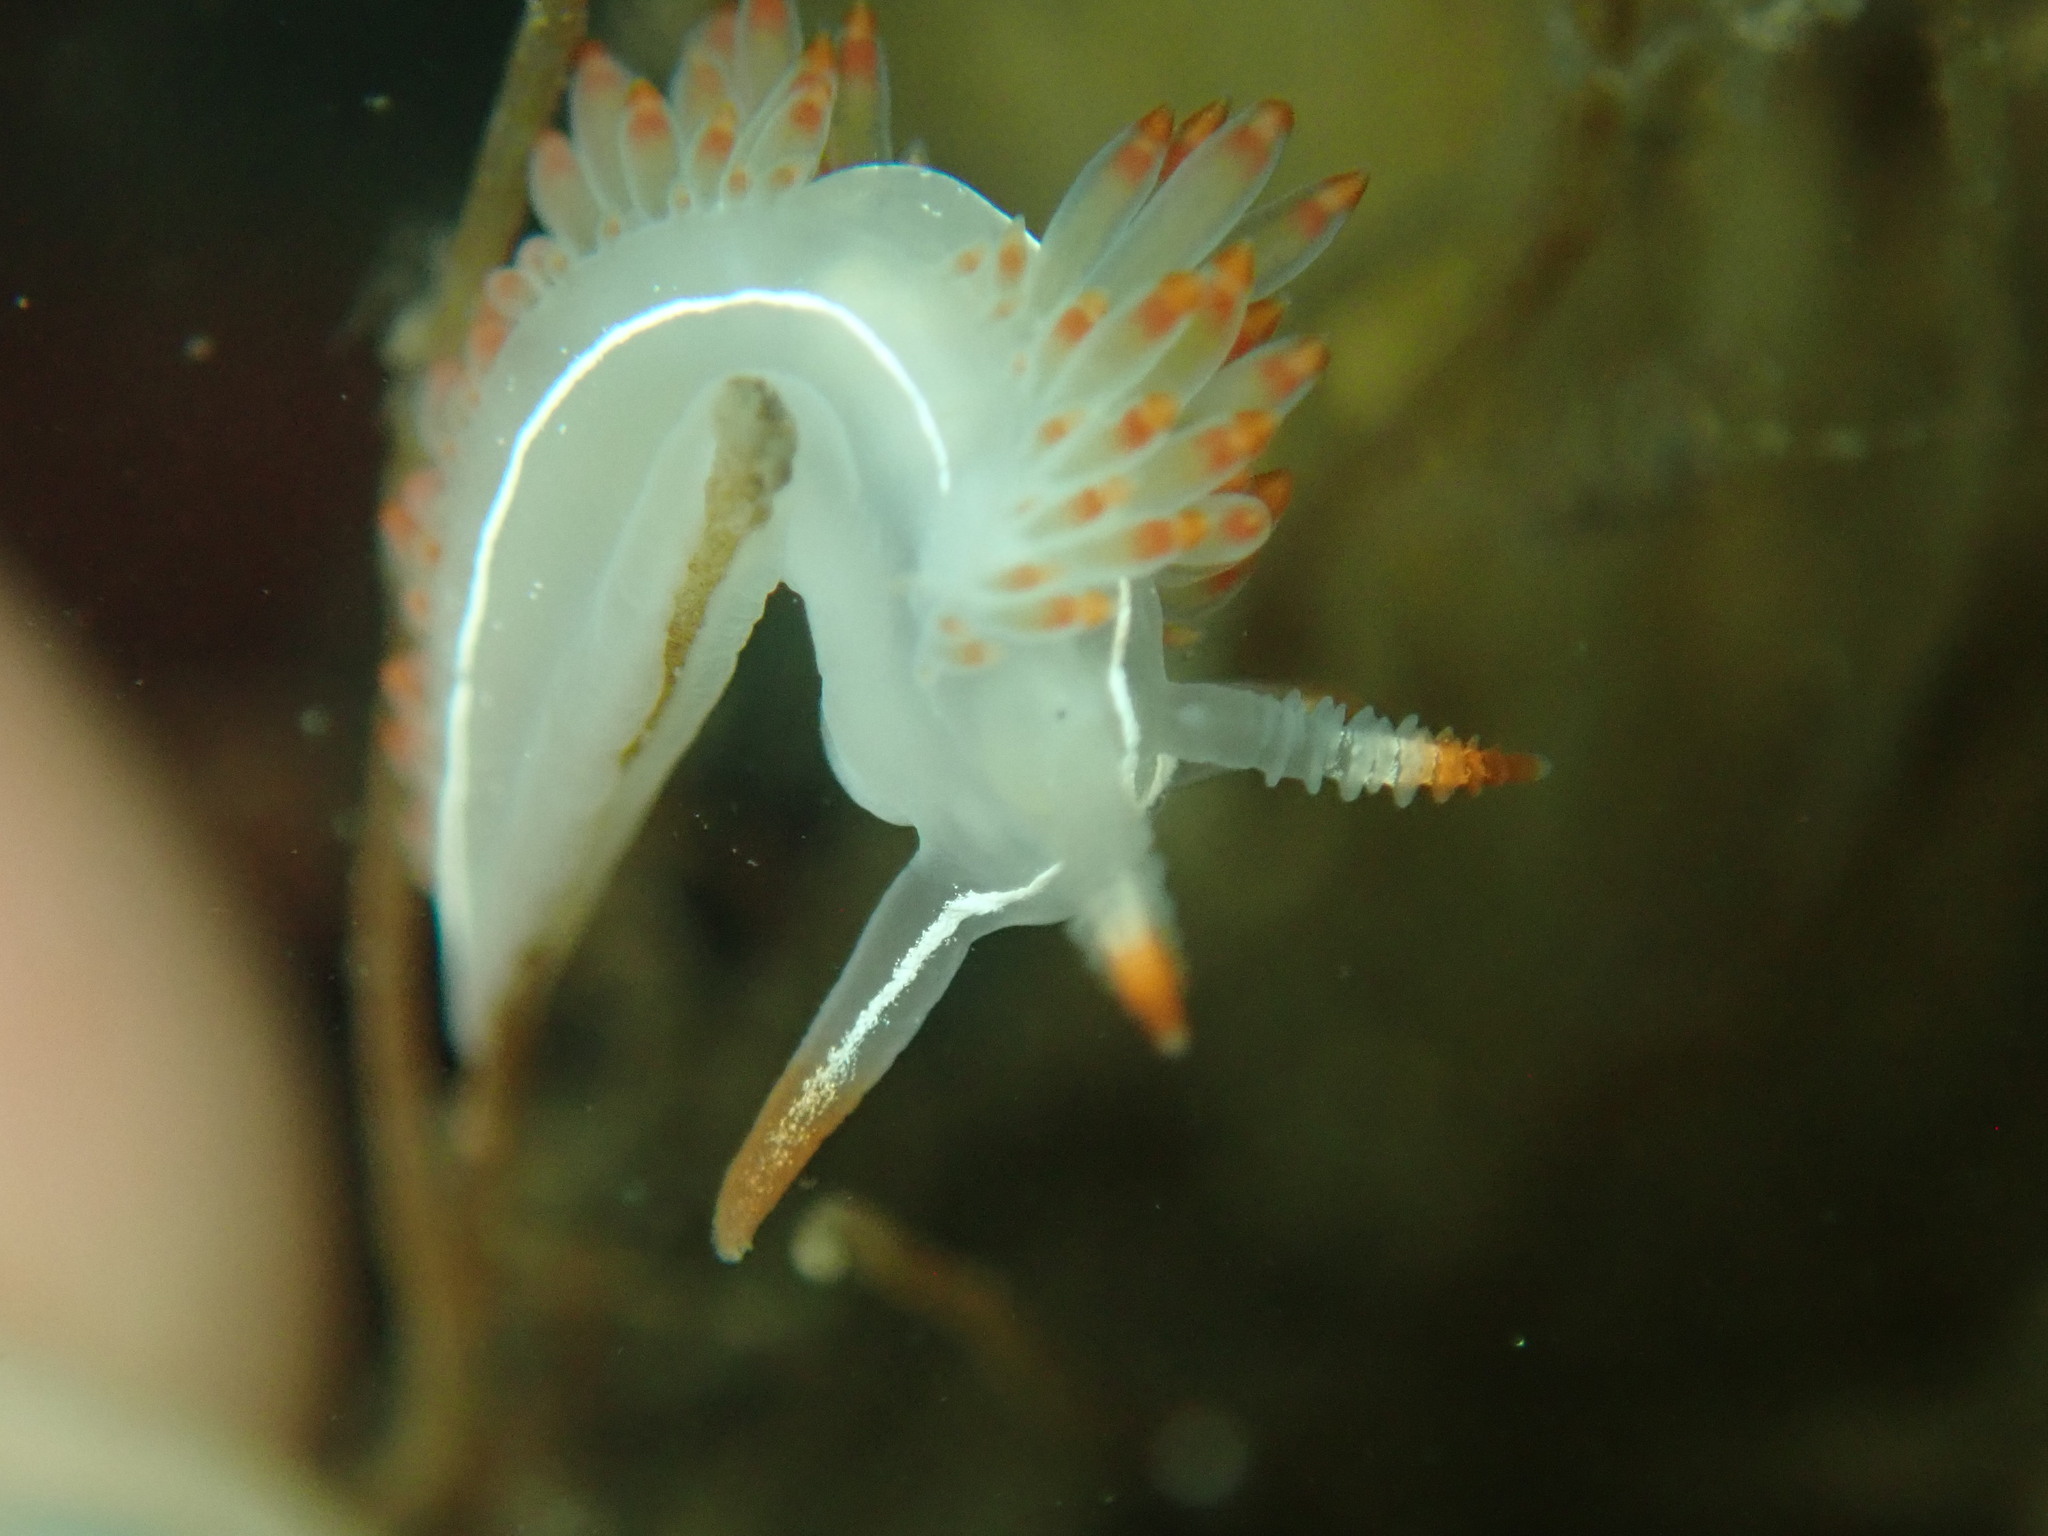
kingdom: Animalia
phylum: Mollusca
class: Gastropoda
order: Nudibranchia
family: Coryphellidae
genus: Coryphella
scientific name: Coryphella trilineata
